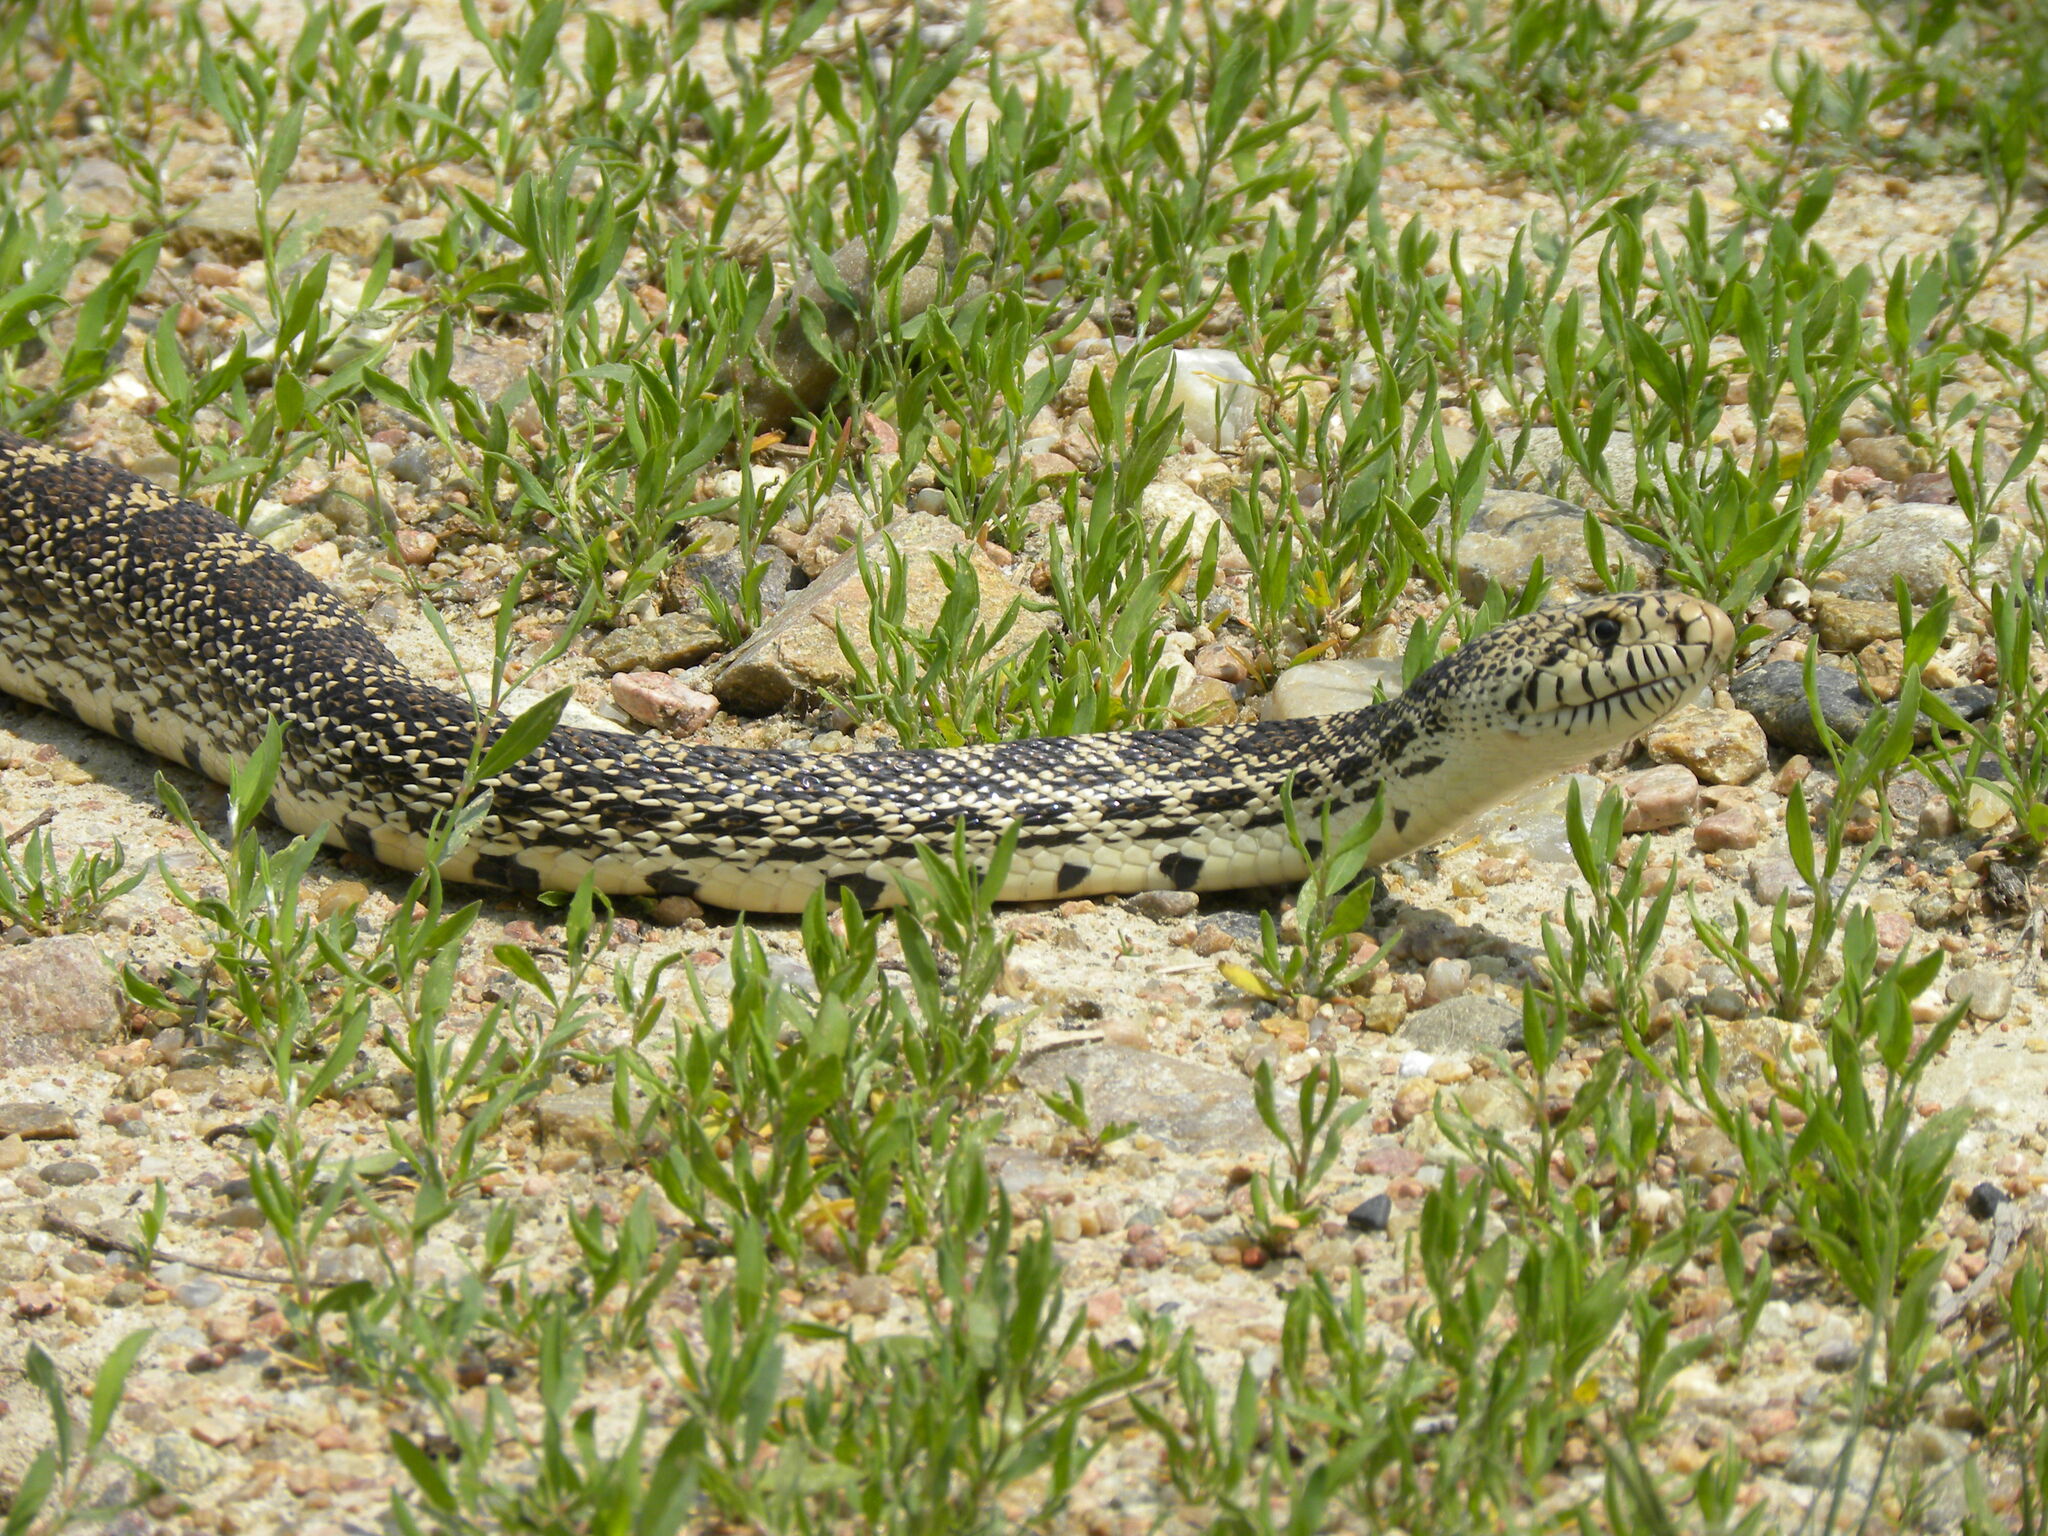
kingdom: Animalia
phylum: Chordata
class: Squamata
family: Colubridae
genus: Pituophis
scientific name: Pituophis catenifer
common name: Gopher snake
